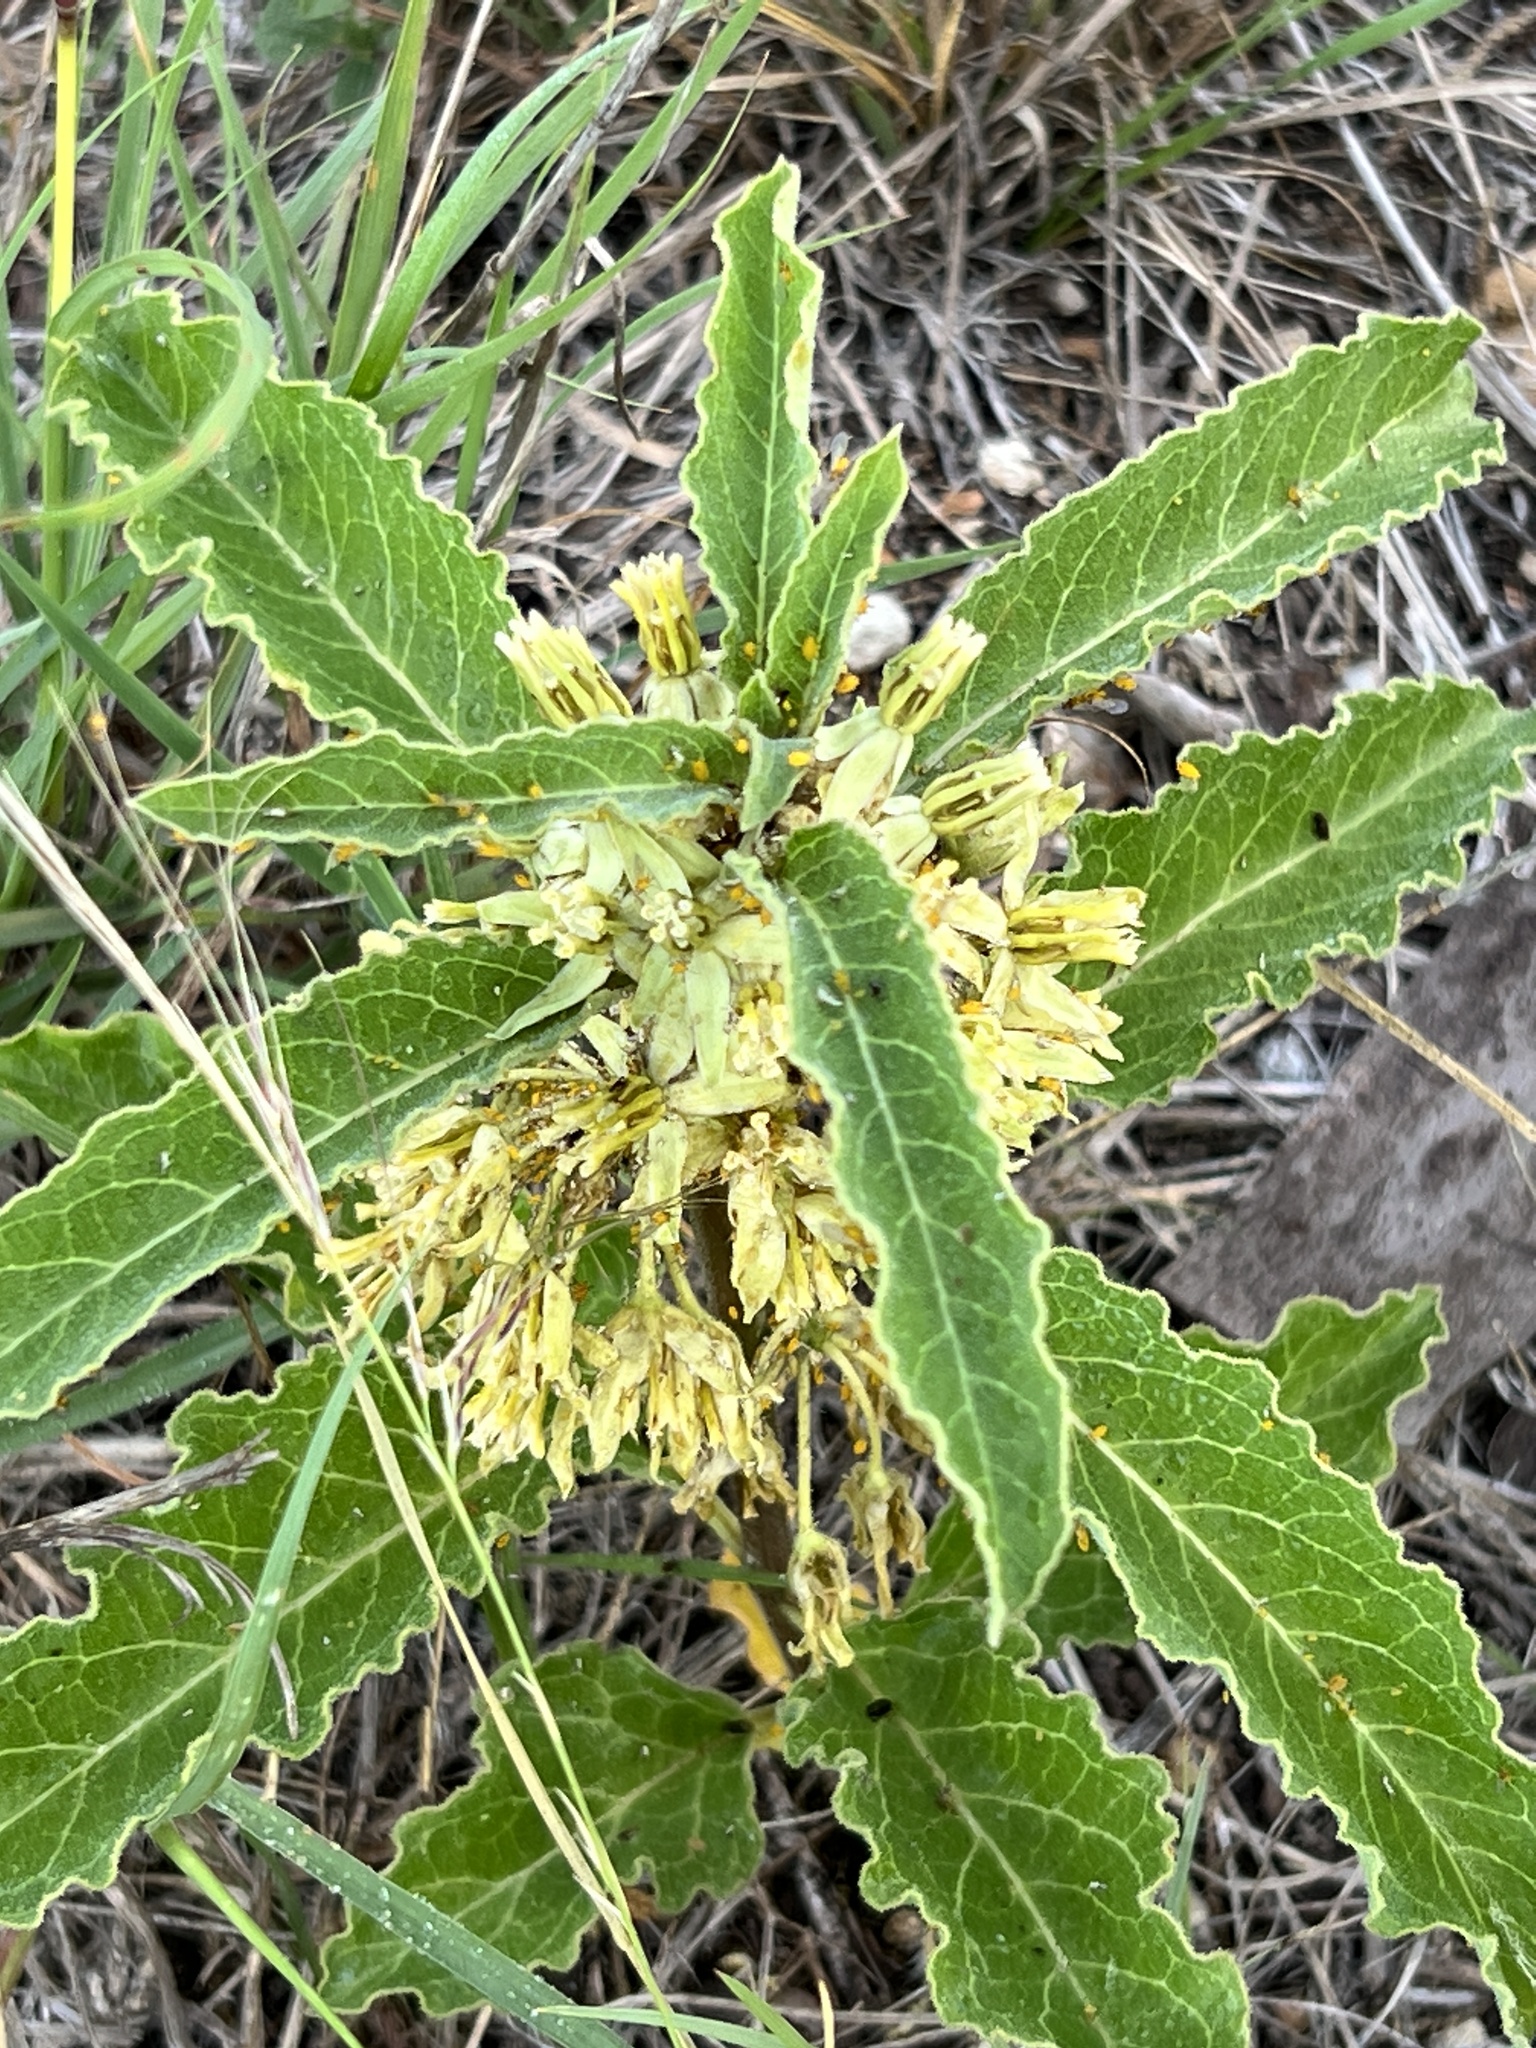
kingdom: Plantae
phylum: Tracheophyta
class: Magnoliopsida
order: Gentianales
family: Apocynaceae
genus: Asclepias
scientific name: Asclepias oenotheroides
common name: Zizotes milkweed
